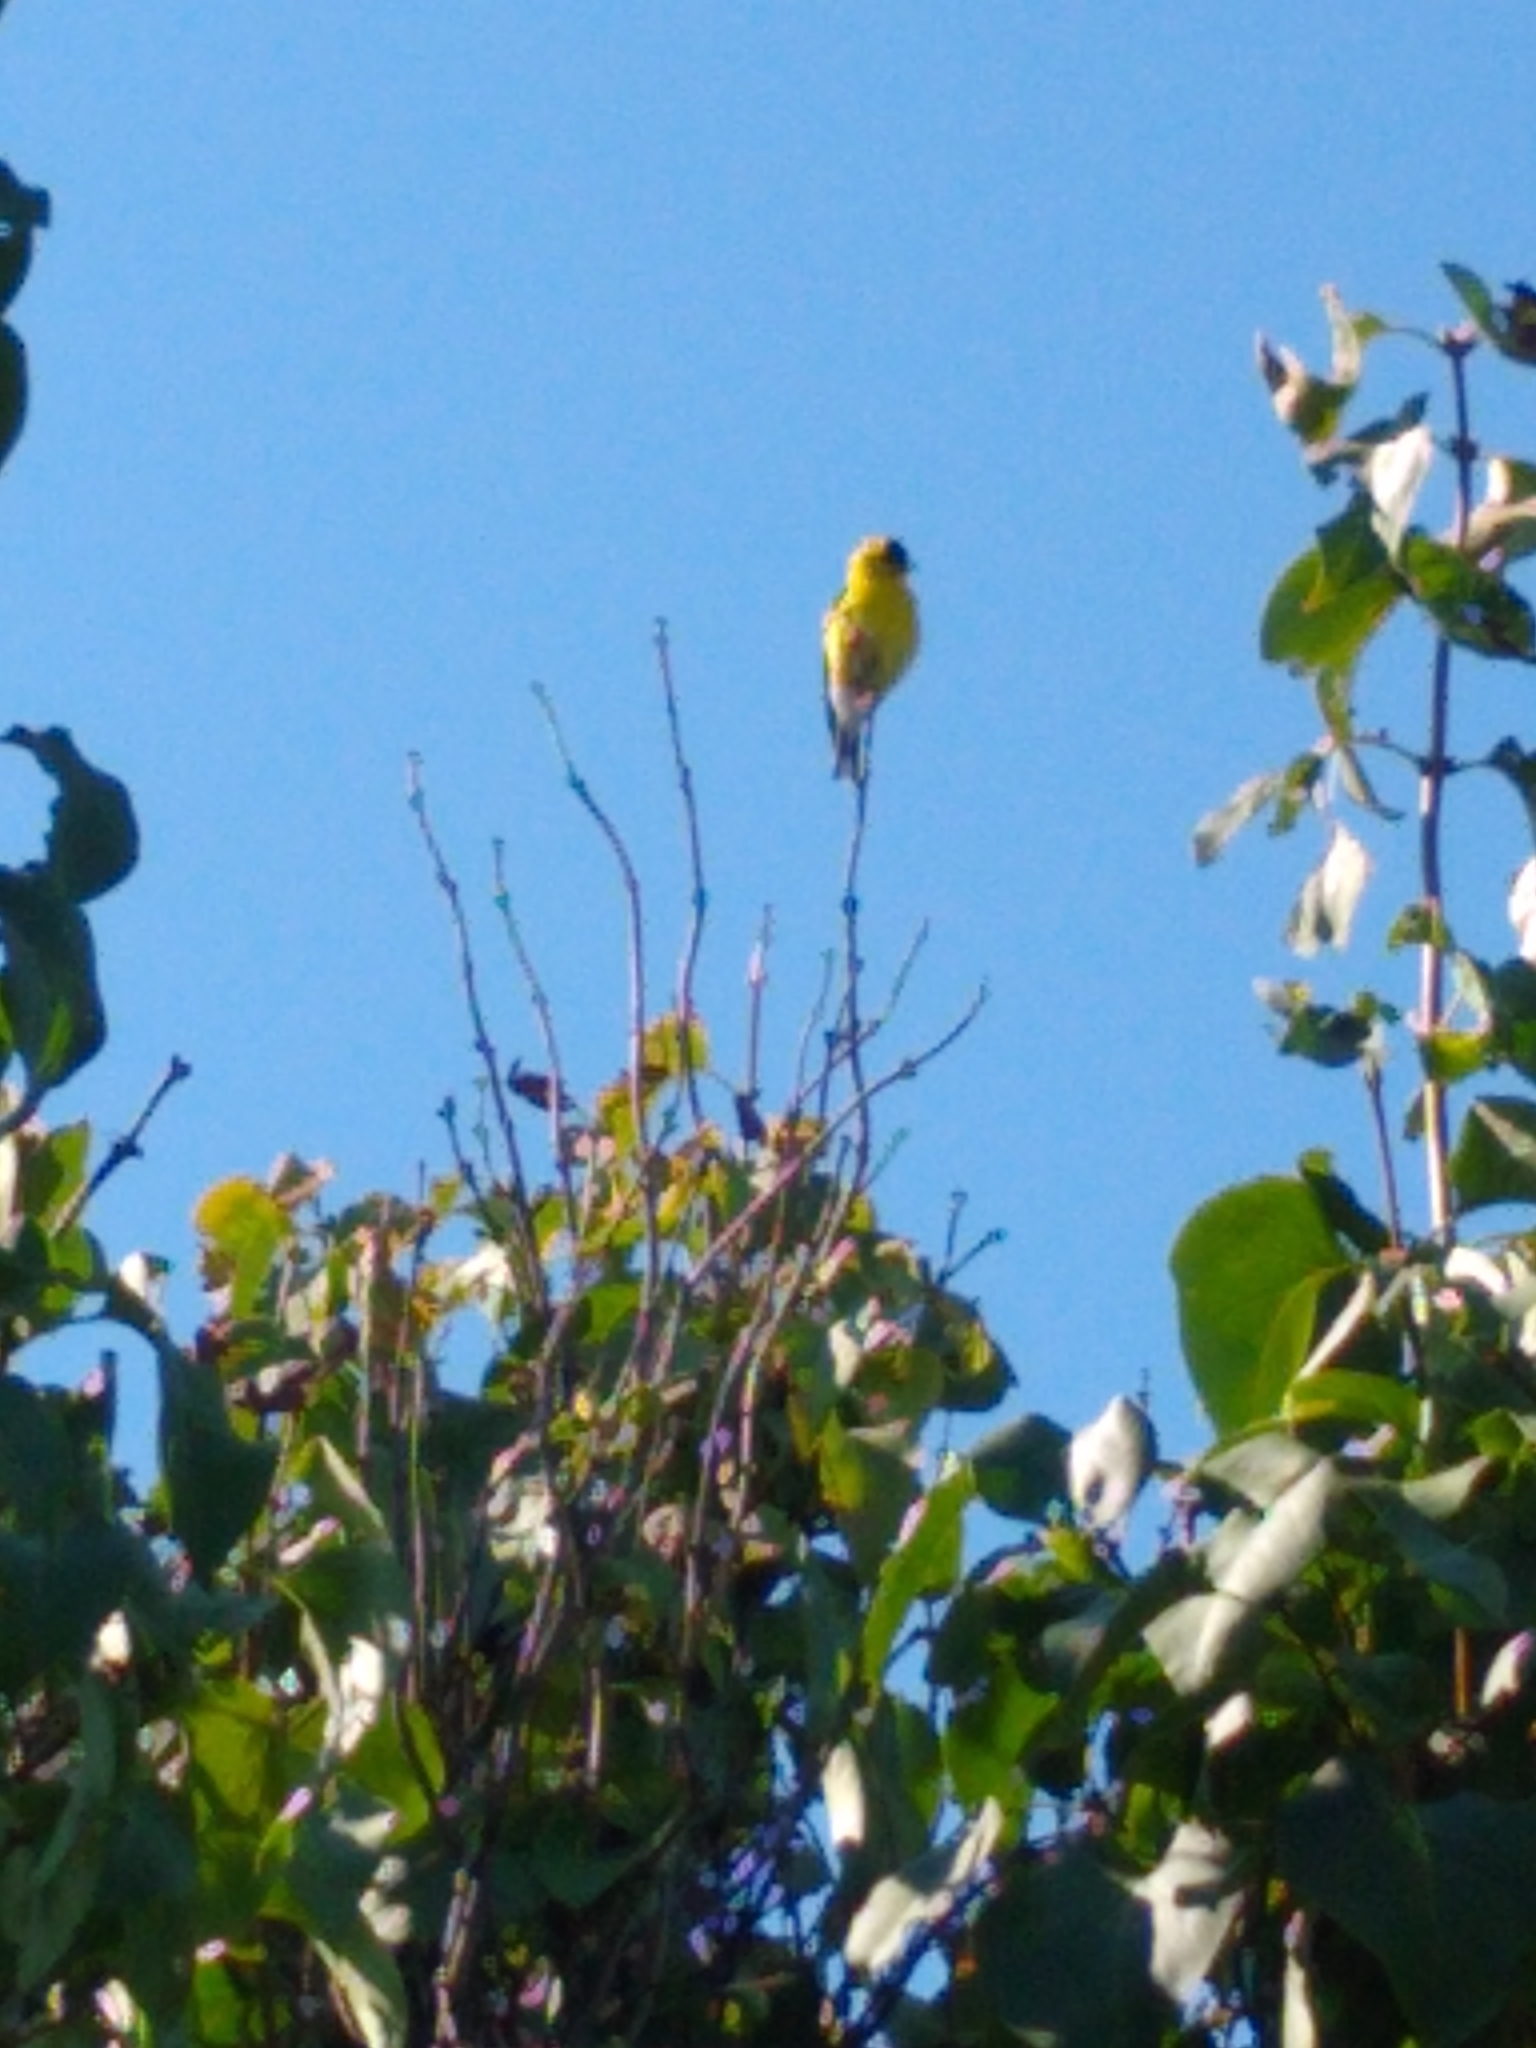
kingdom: Animalia
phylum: Chordata
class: Aves
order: Passeriformes
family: Fringillidae
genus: Spinus
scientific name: Spinus tristis
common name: American goldfinch
